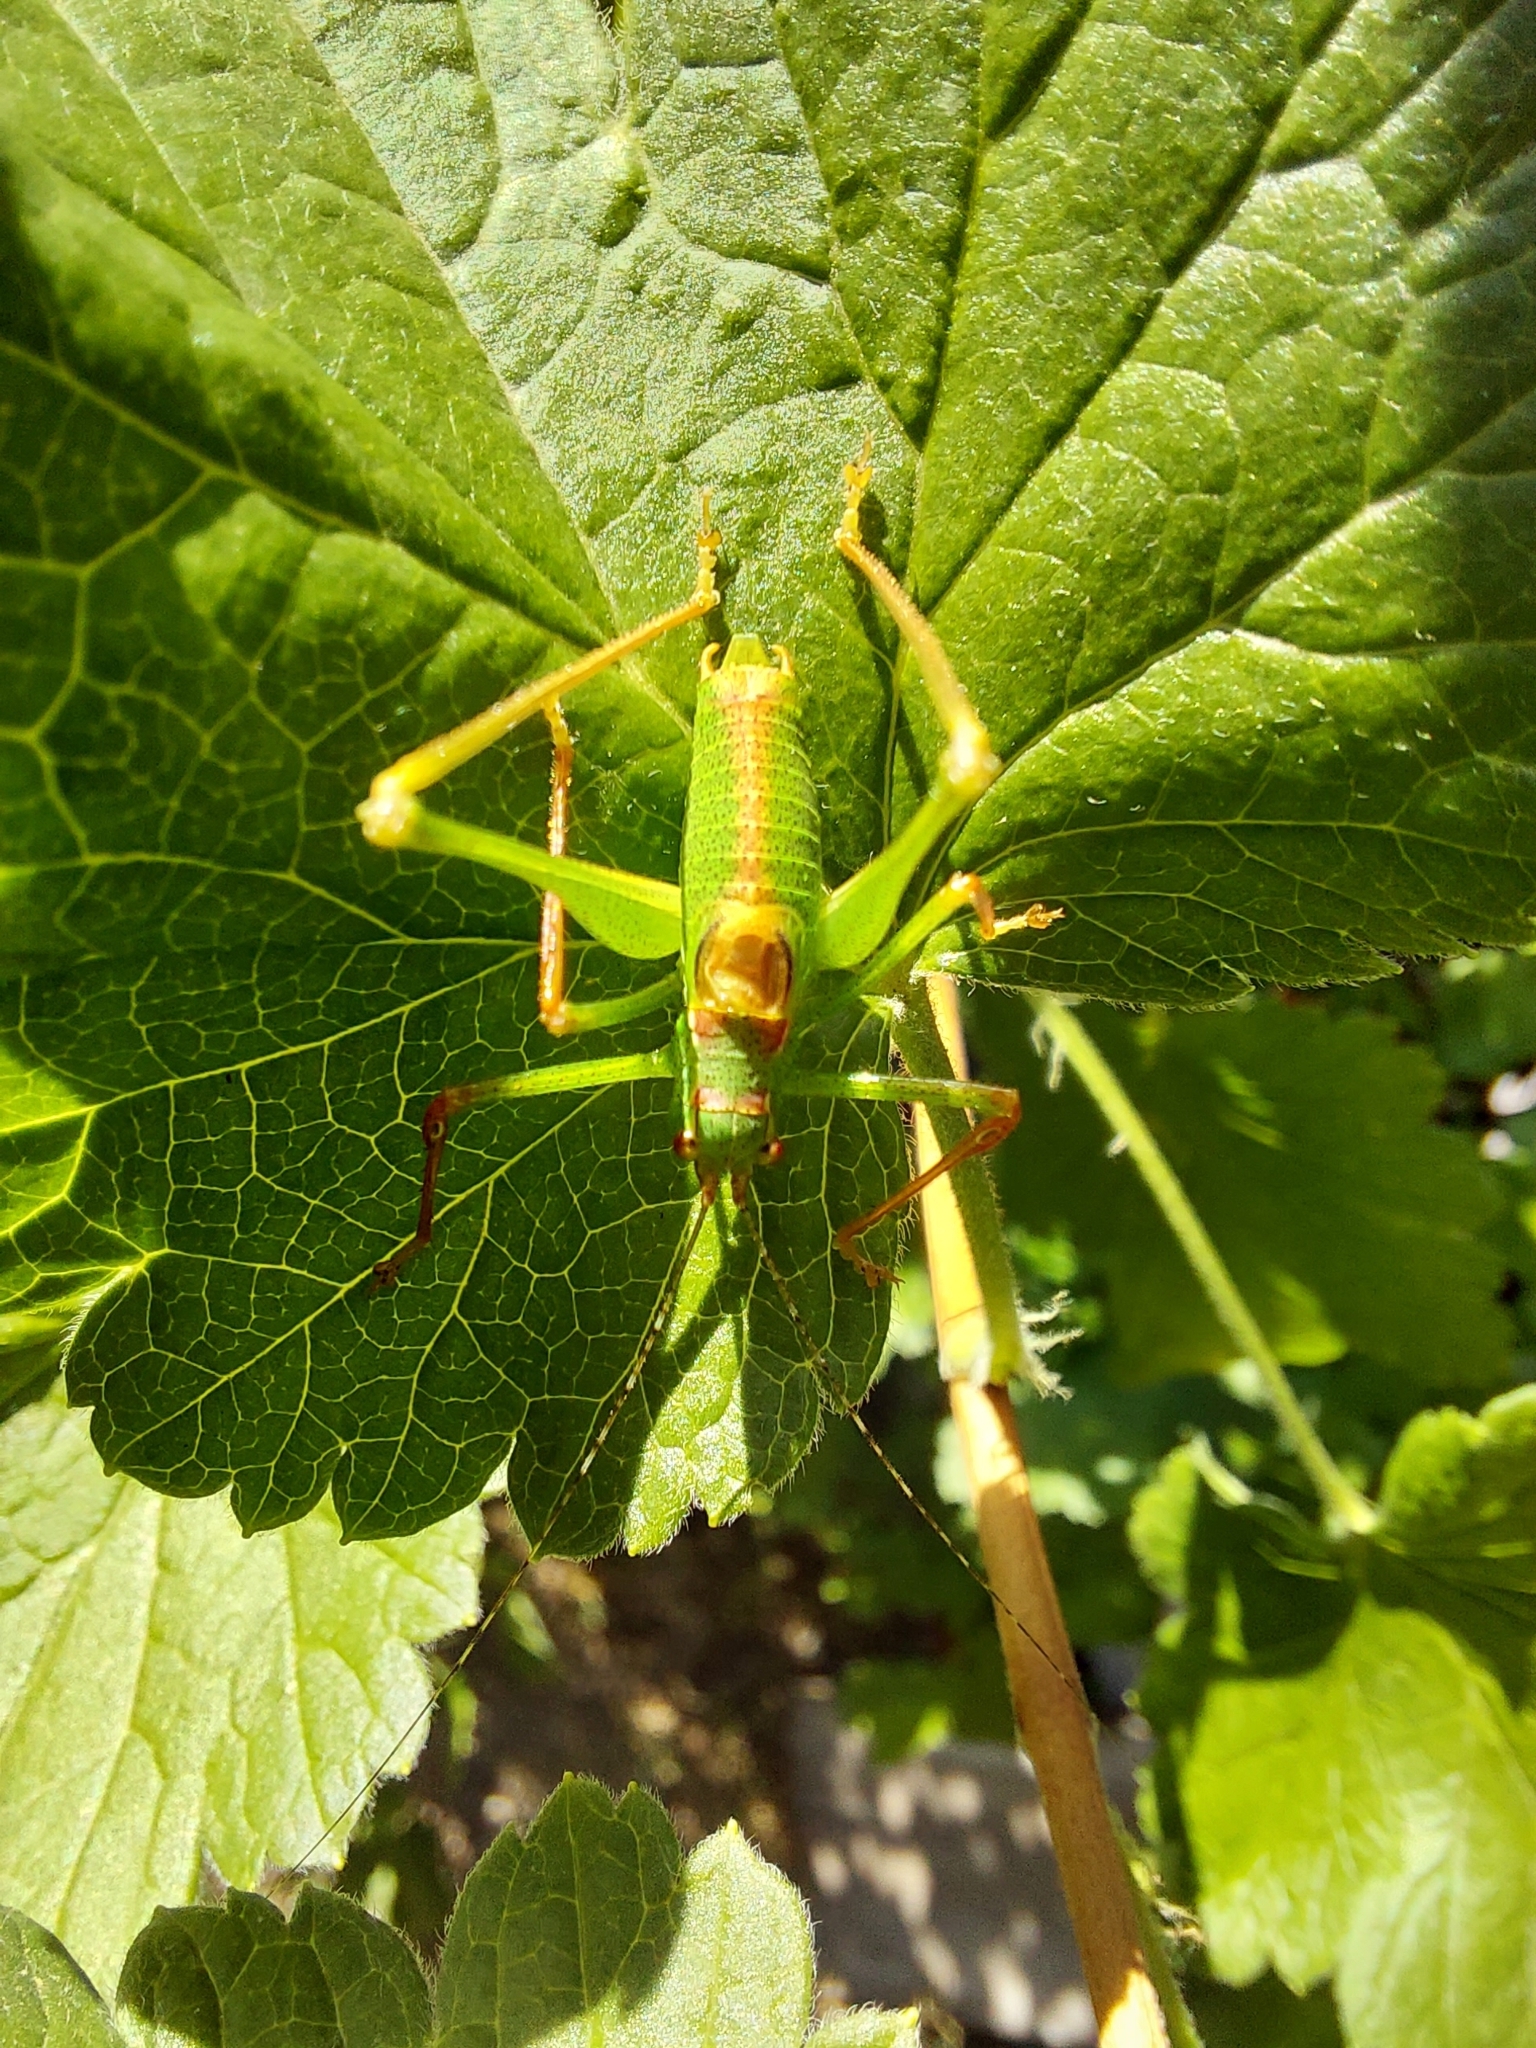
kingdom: Animalia
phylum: Arthropoda
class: Insecta
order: Orthoptera
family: Tettigoniidae
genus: Leptophyes
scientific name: Leptophyes laticauda
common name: Long-tailed speckled bush-cricket
